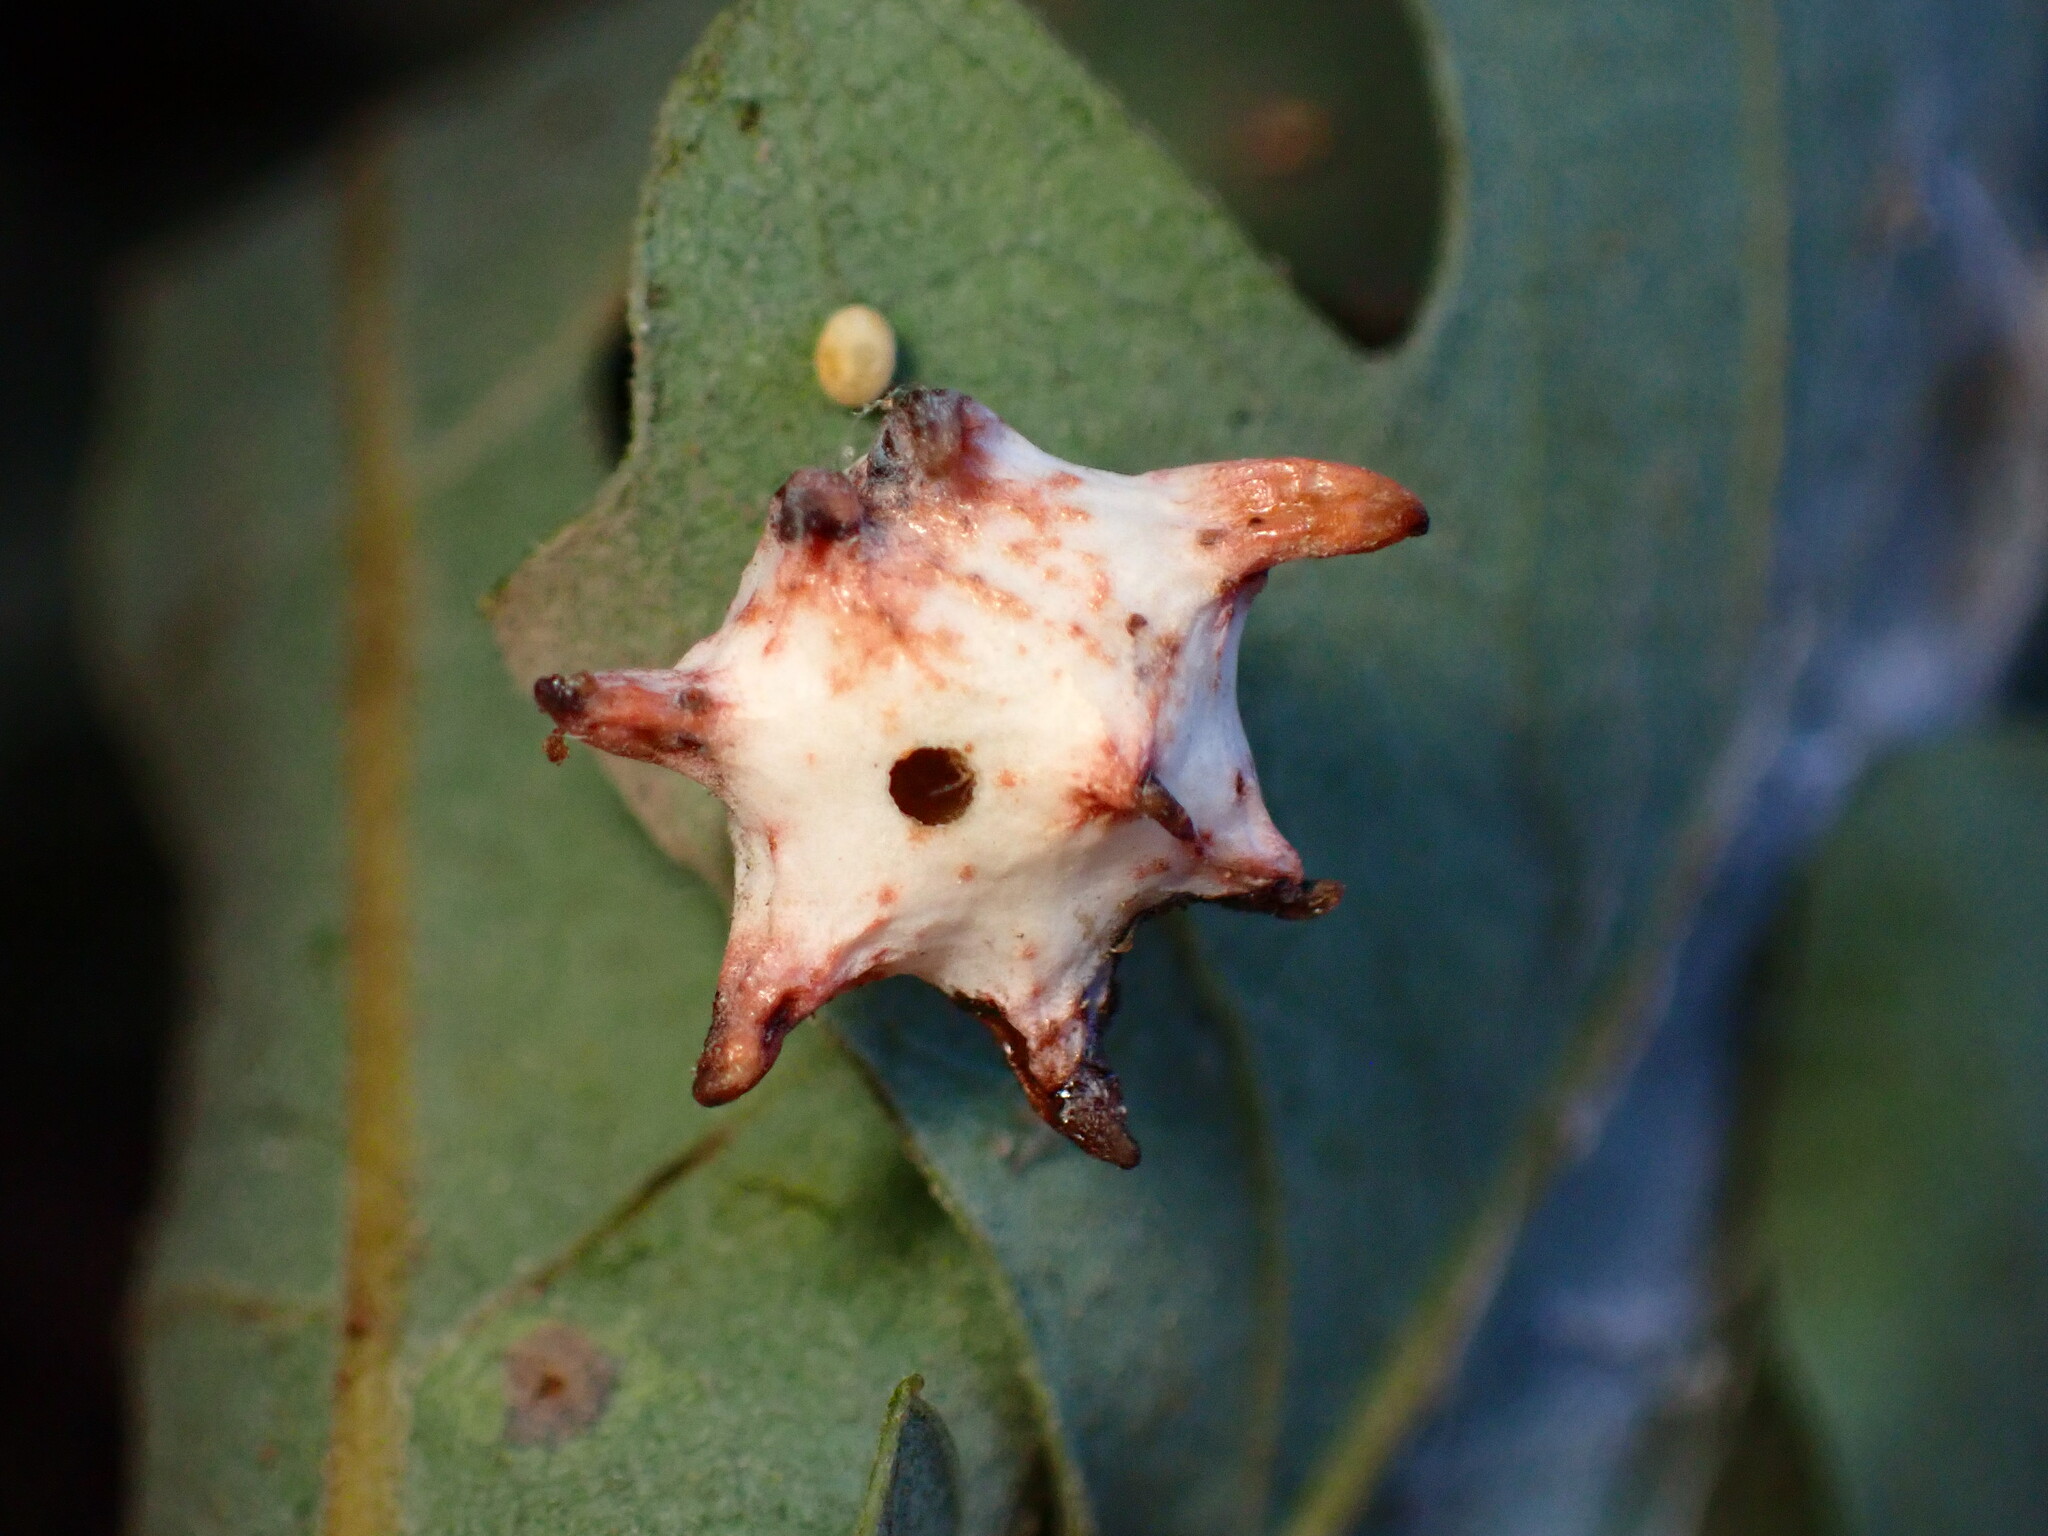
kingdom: Animalia
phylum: Arthropoda
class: Insecta
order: Hymenoptera
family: Cynipidae
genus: Cynips
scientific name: Cynips douglasi
